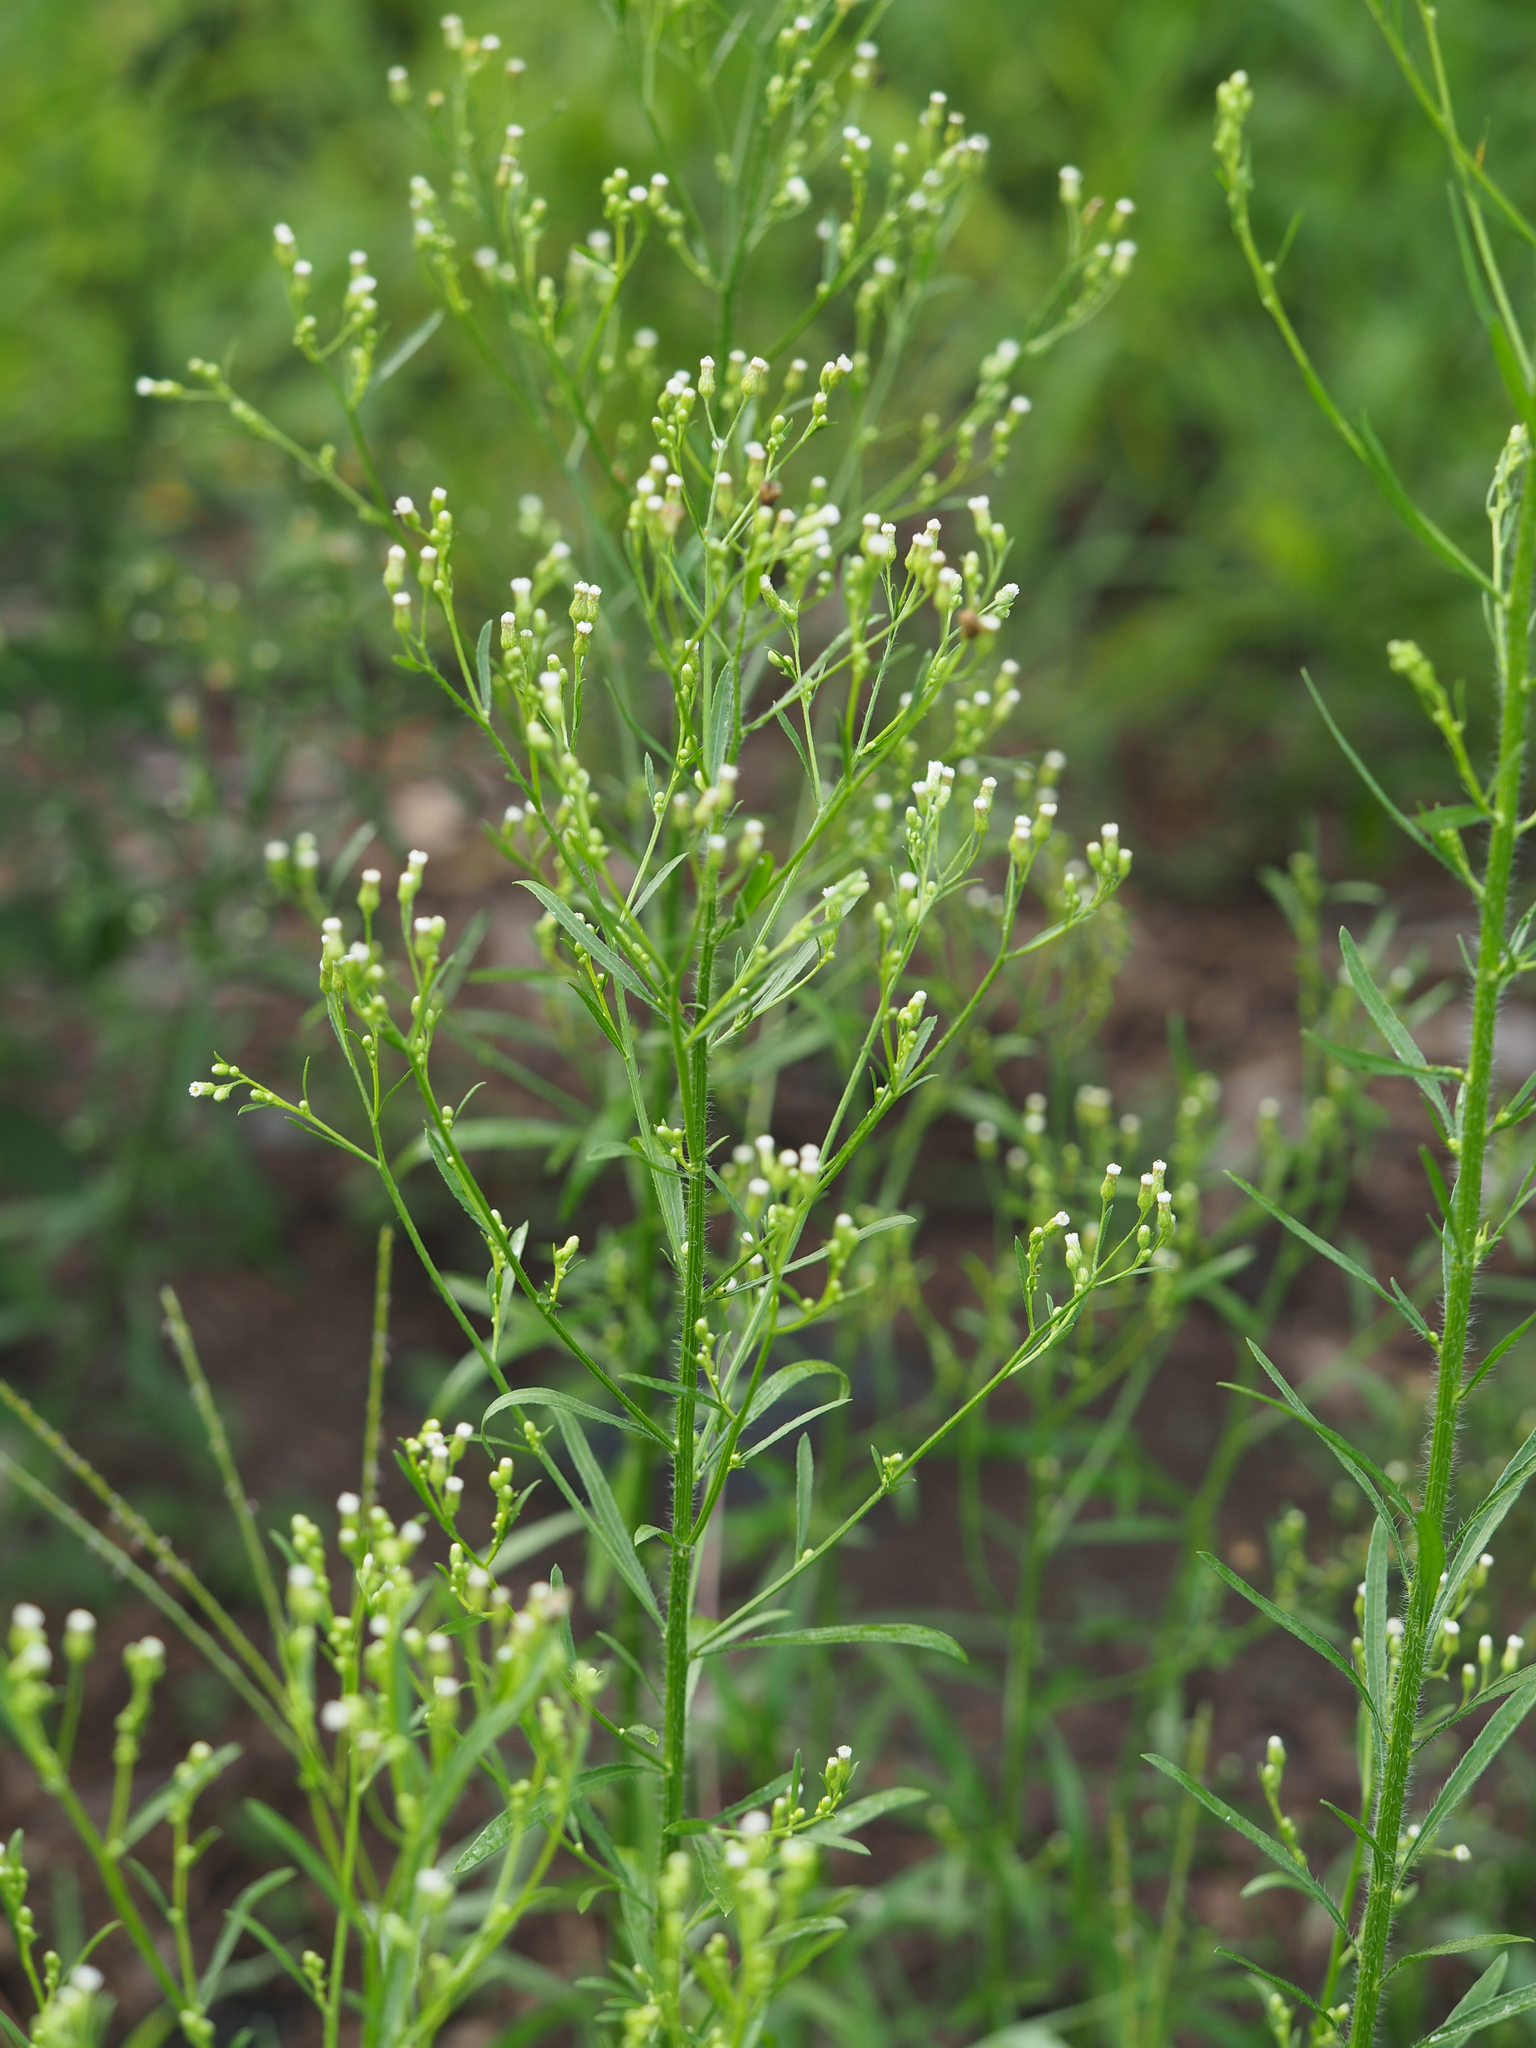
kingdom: Plantae
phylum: Tracheophyta
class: Magnoliopsida
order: Asterales
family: Asteraceae
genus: Erigeron
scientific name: Erigeron canadensis
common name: Canadian fleabane
